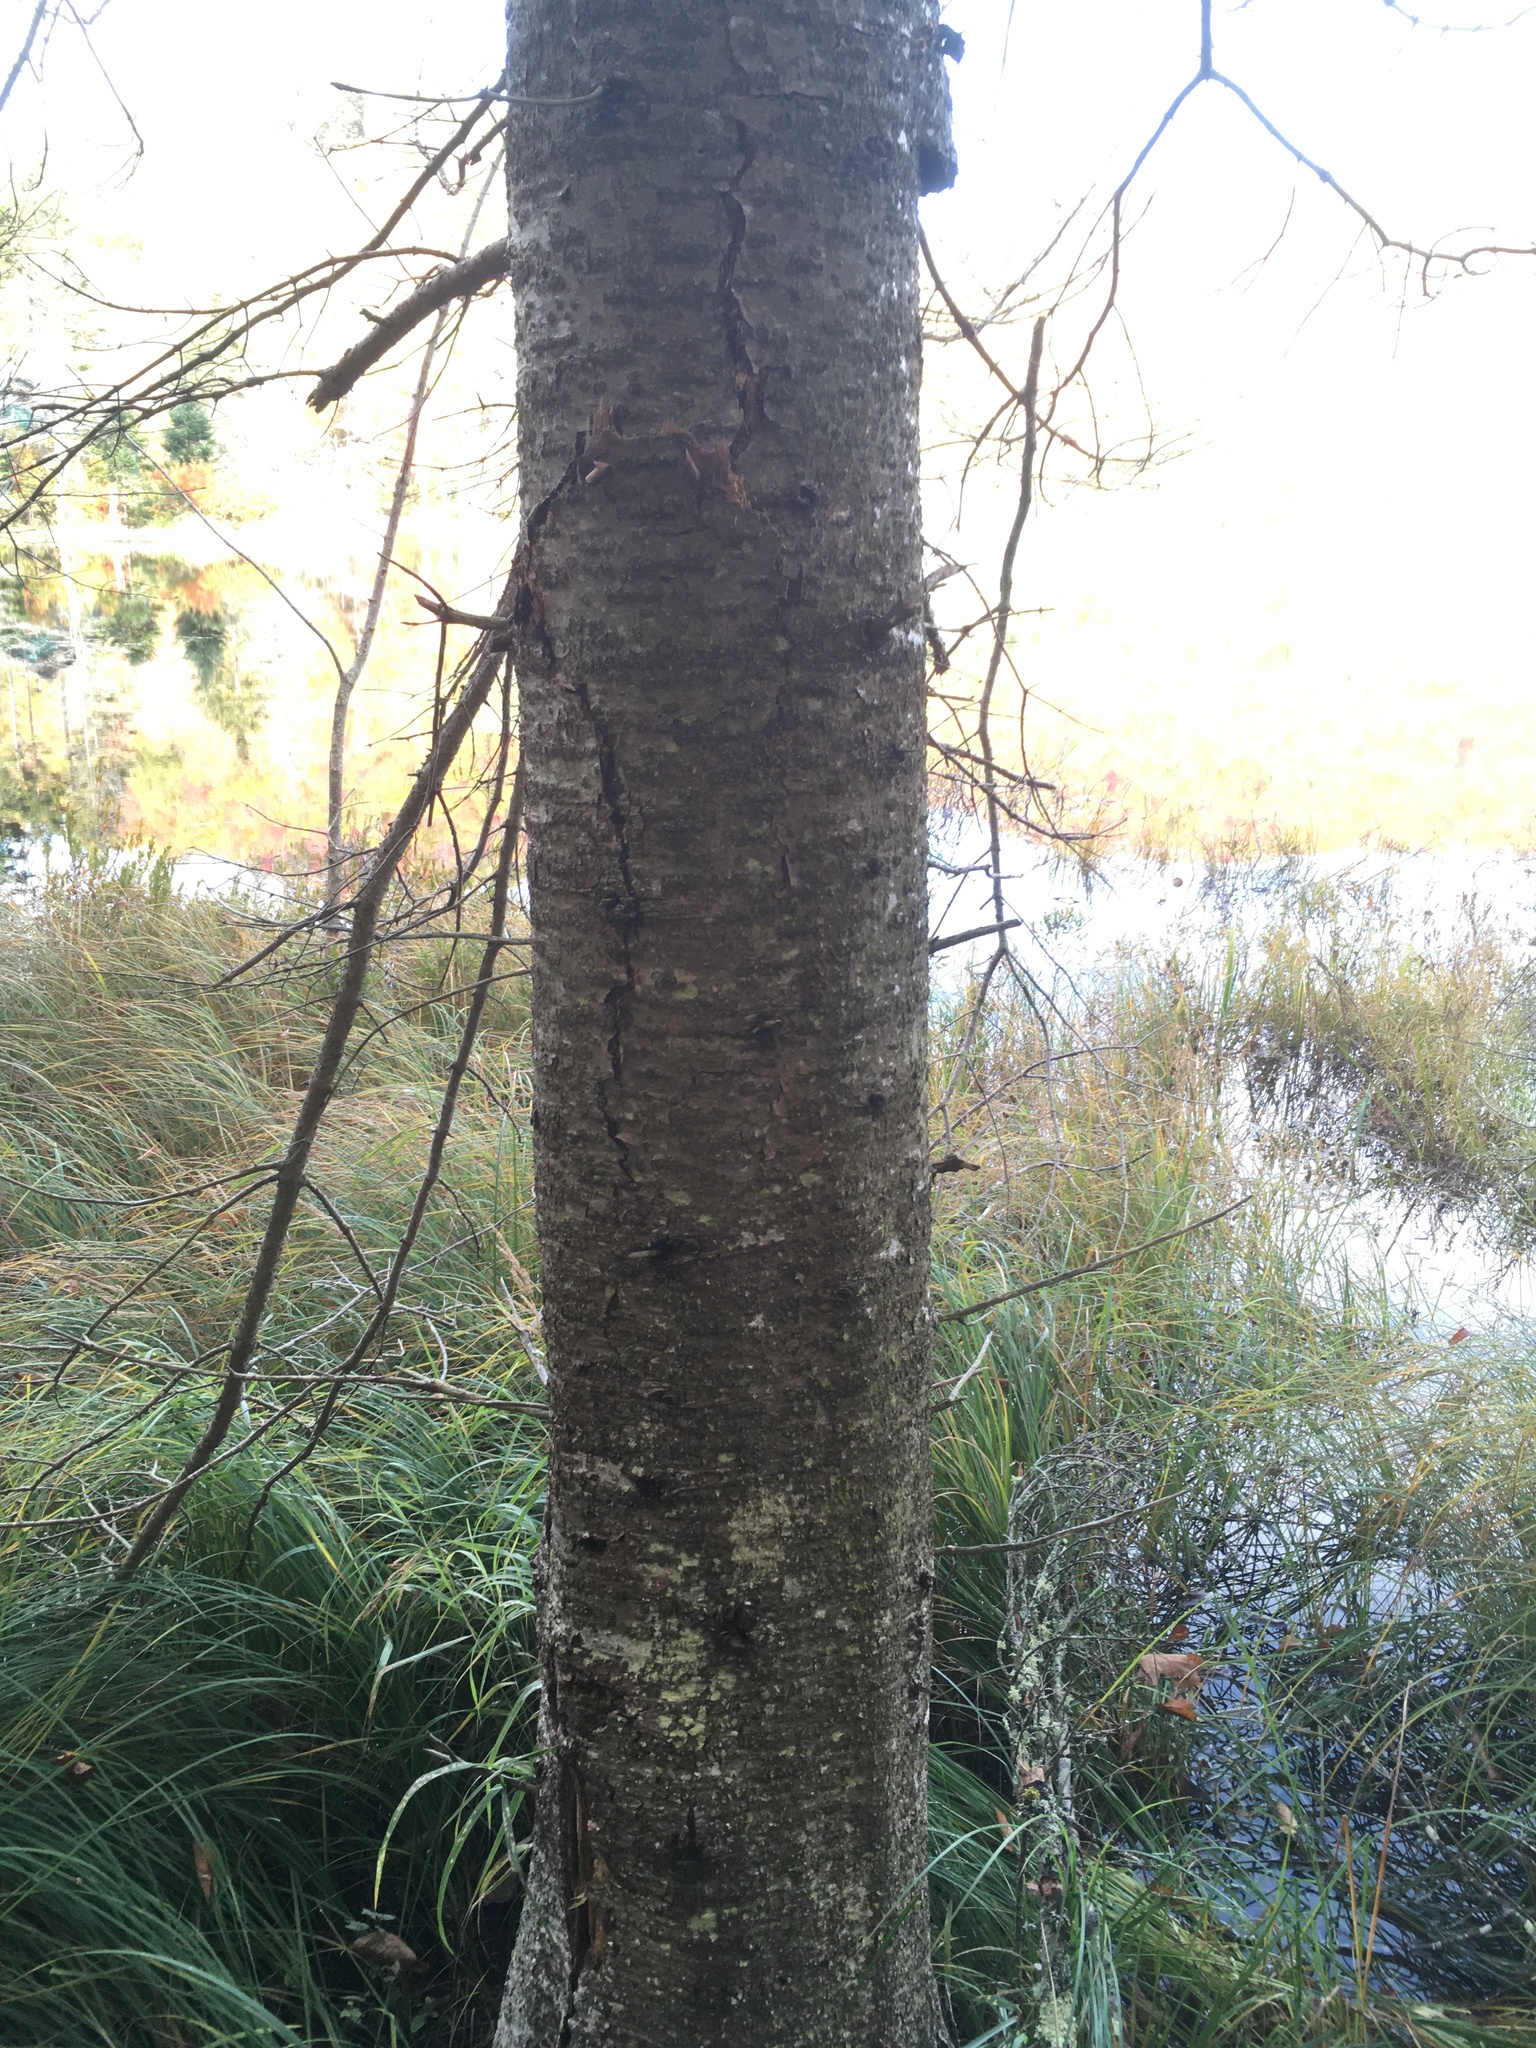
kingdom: Plantae
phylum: Tracheophyta
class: Pinopsida
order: Pinales
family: Pinaceae
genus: Abies
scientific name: Abies balsamea
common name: Balsam fir
